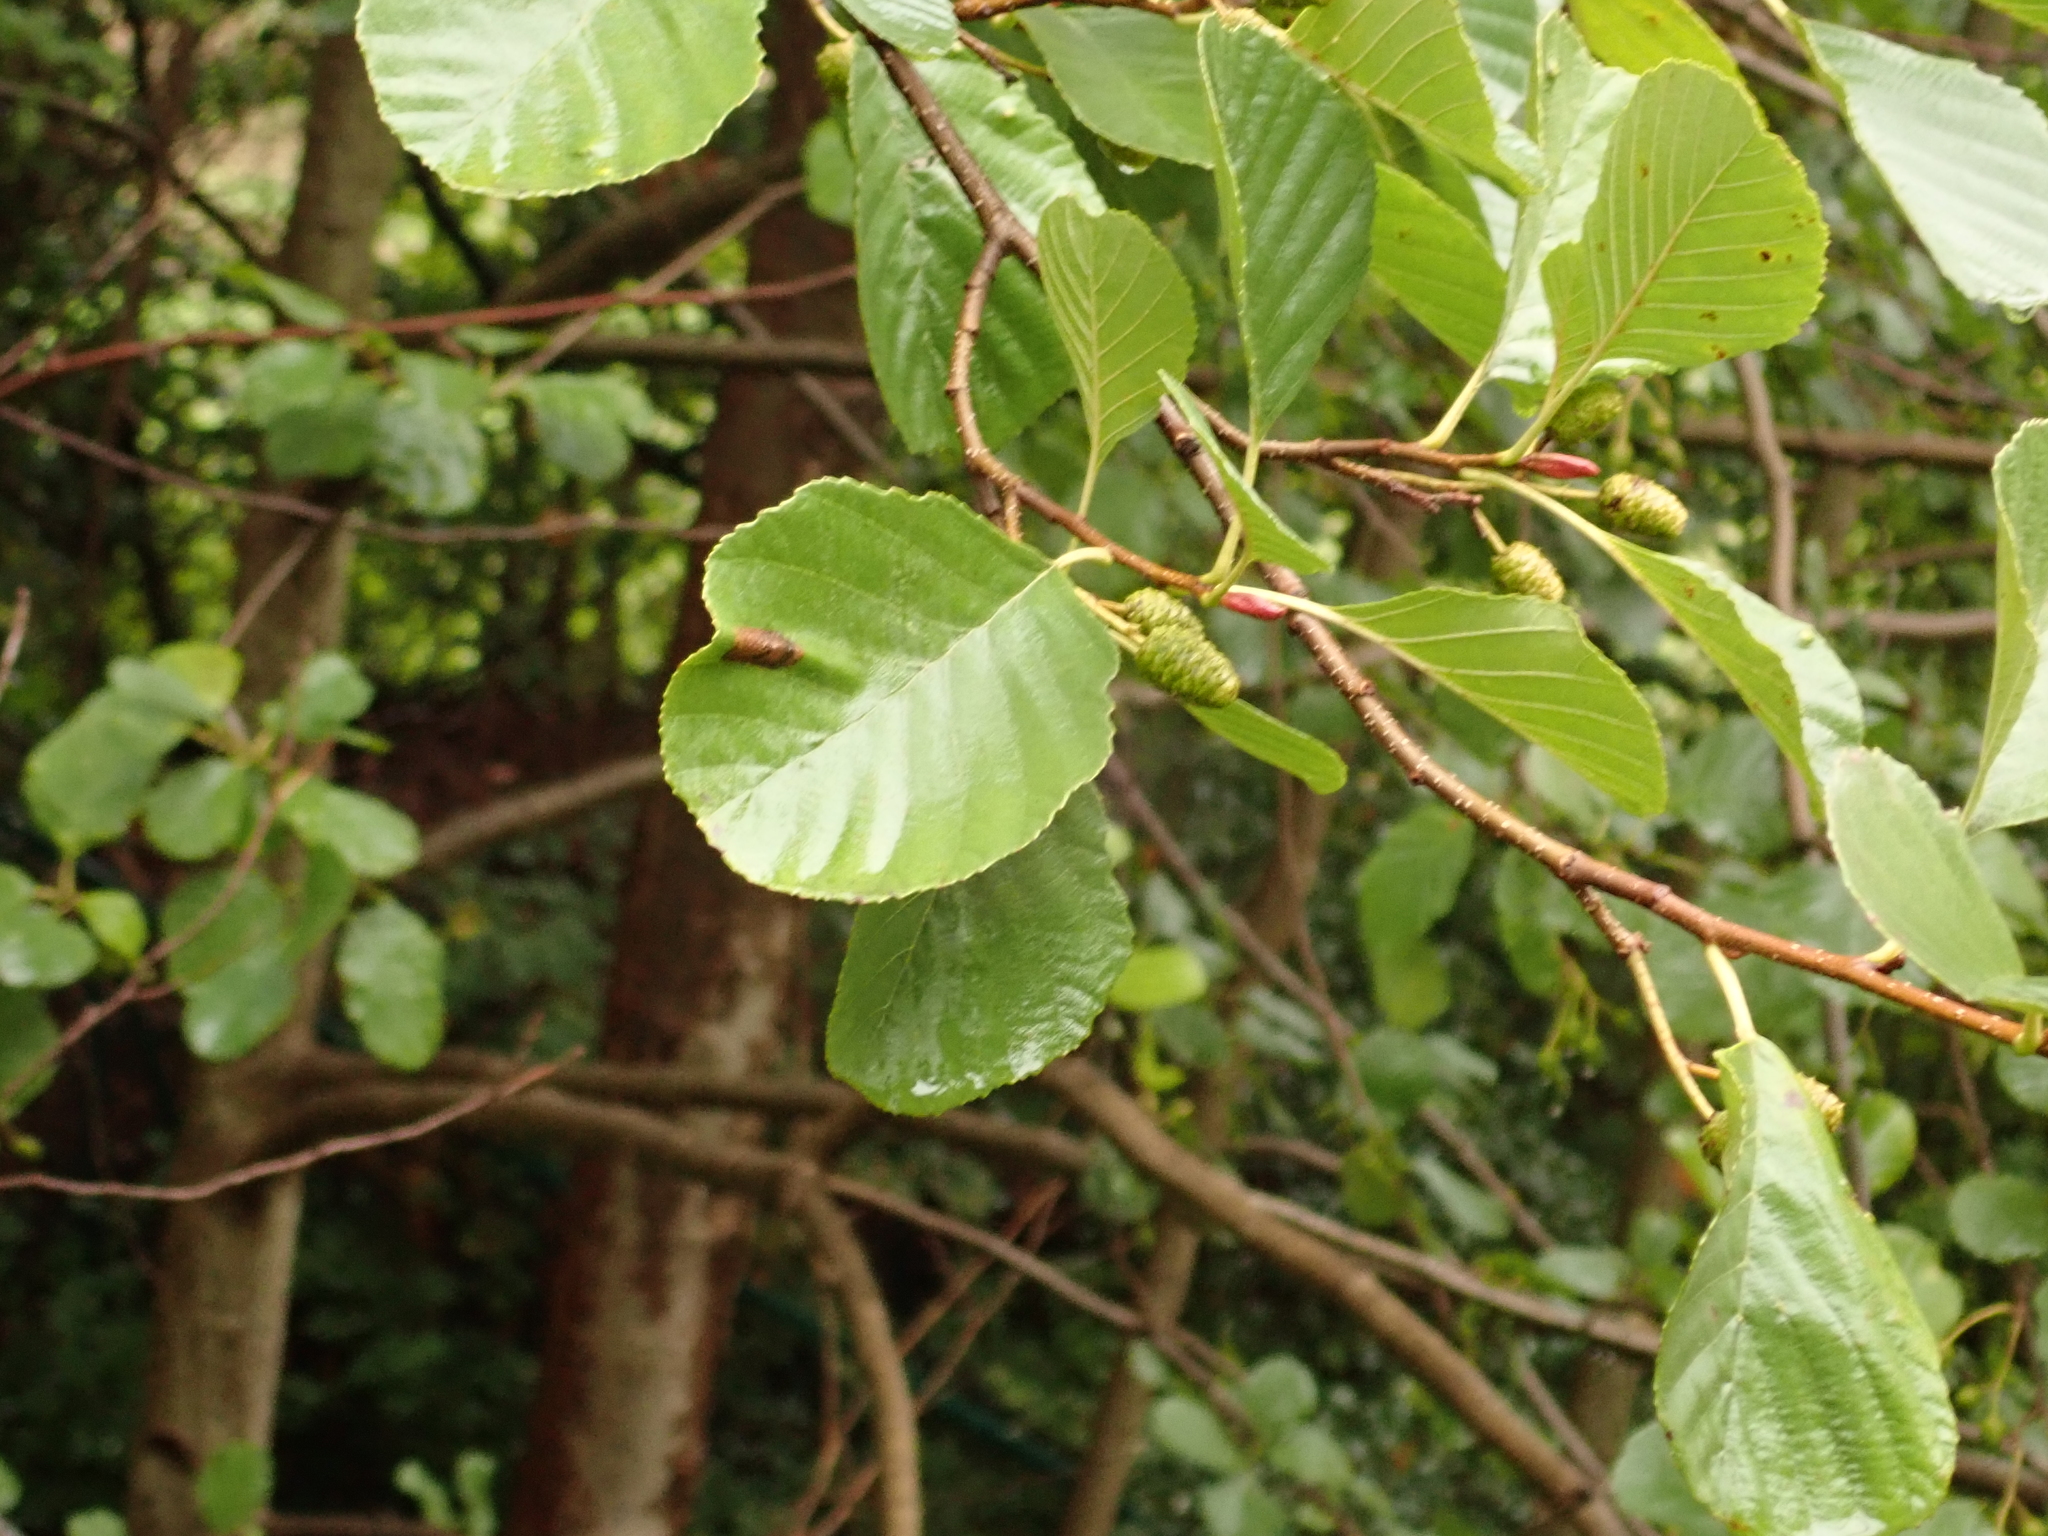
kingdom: Plantae
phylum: Tracheophyta
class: Magnoliopsida
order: Fagales
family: Betulaceae
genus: Alnus
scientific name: Alnus glutinosa
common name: Black alder
